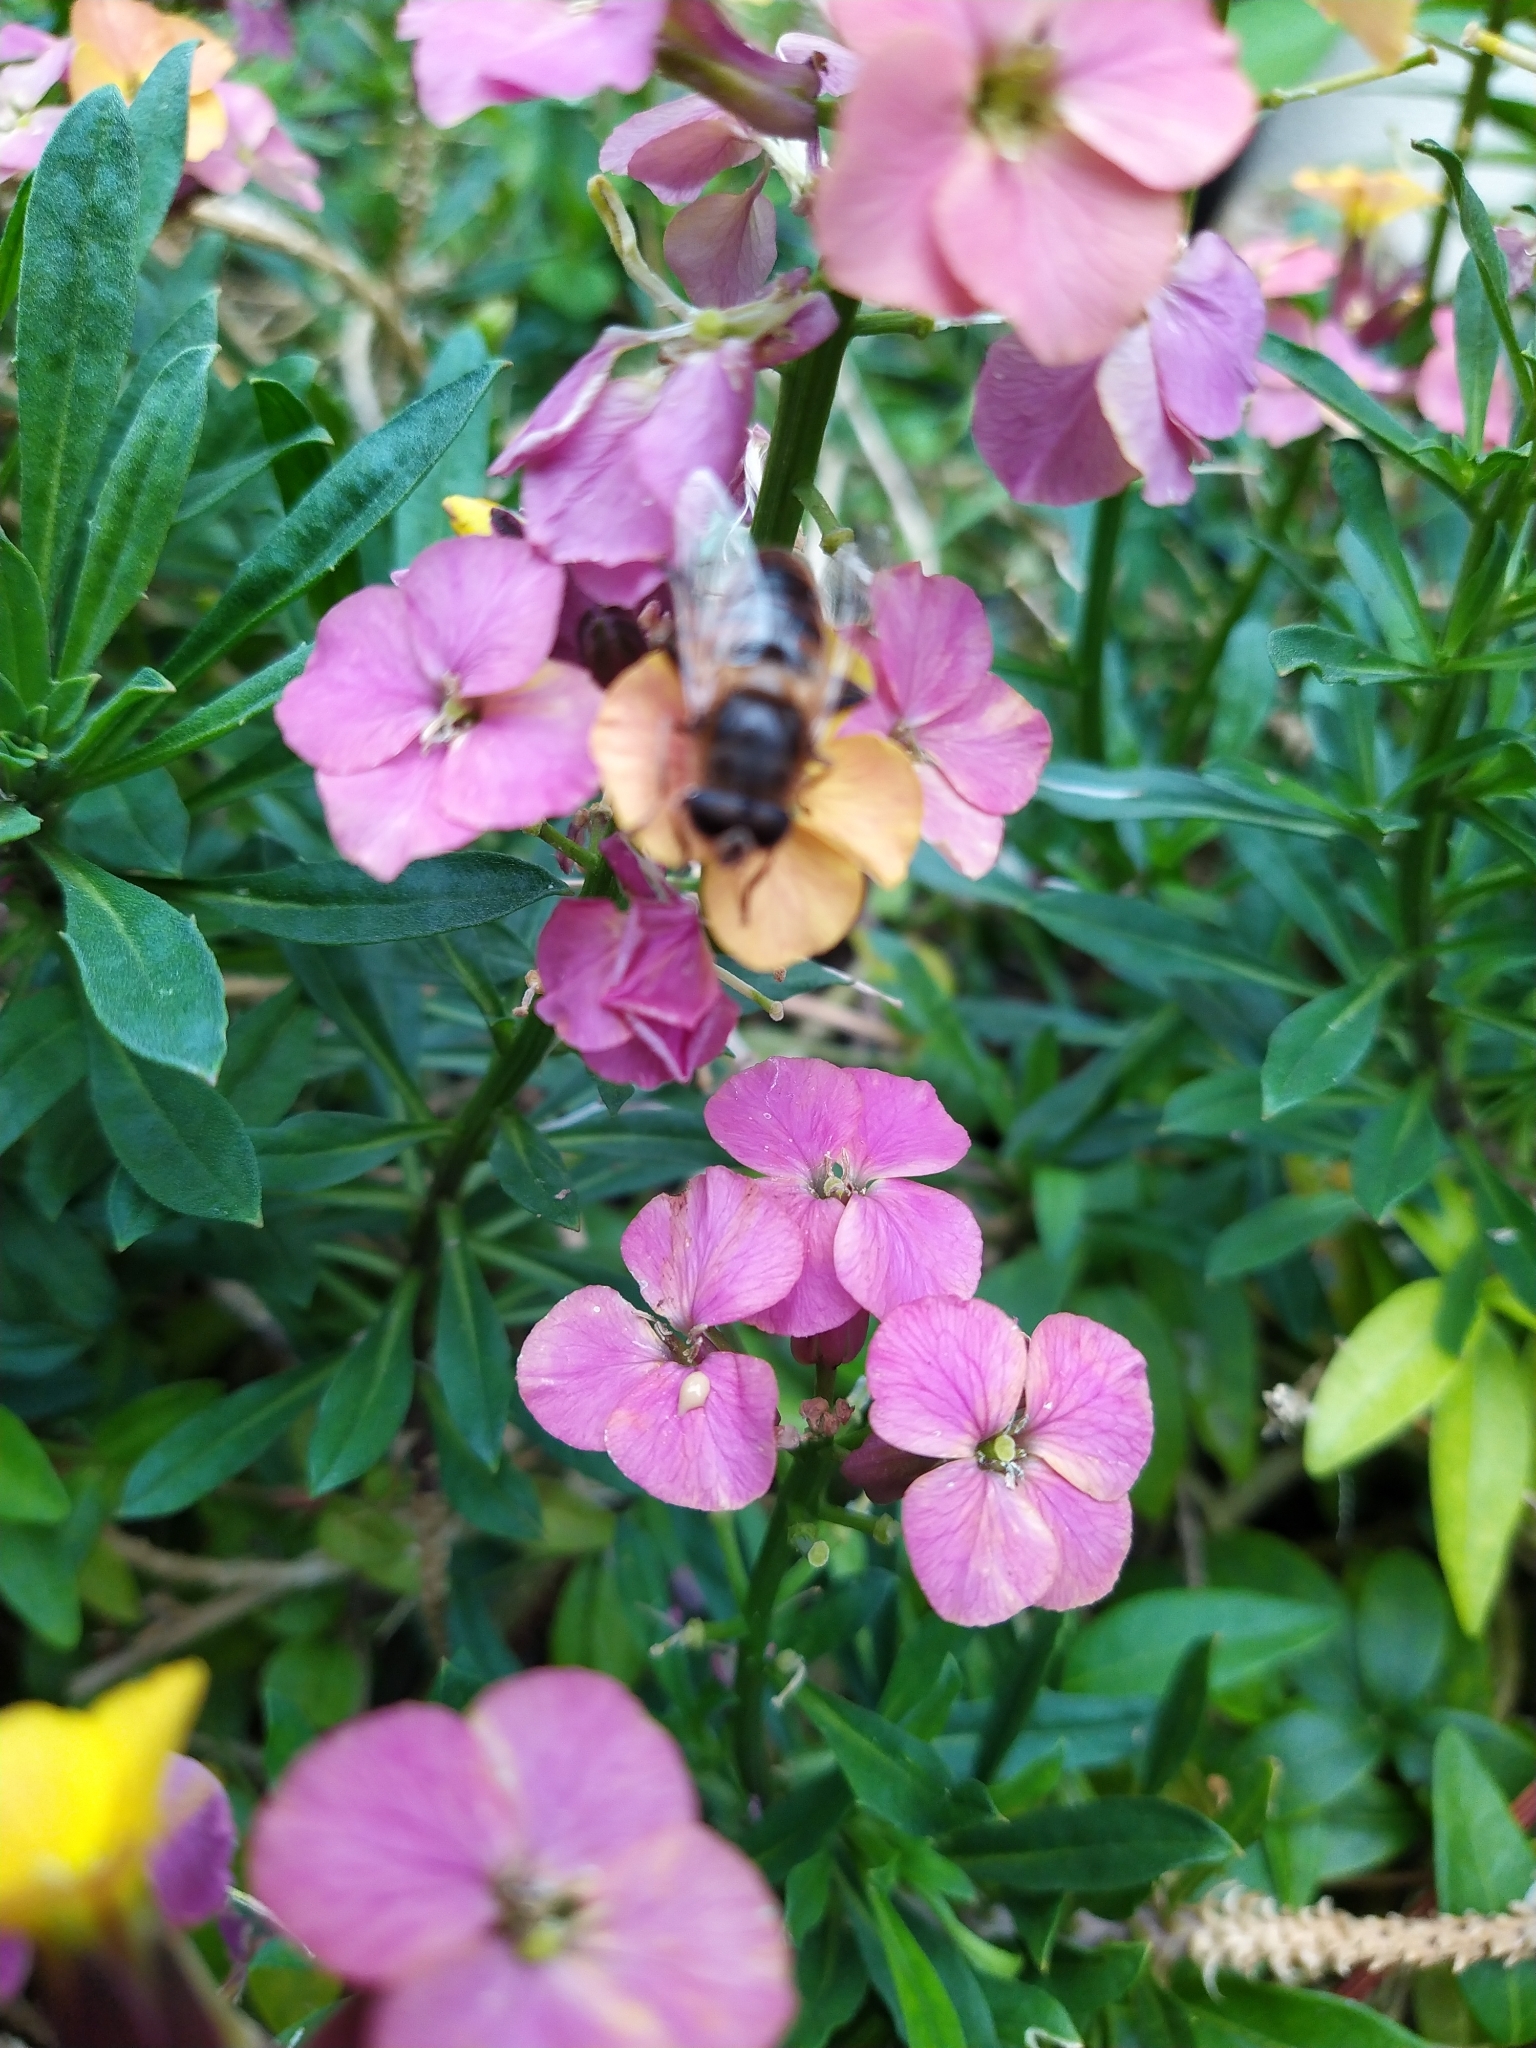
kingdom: Animalia
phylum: Arthropoda
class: Insecta
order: Diptera
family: Syrphidae
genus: Eristalis
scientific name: Eristalis tenax
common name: Drone fly
